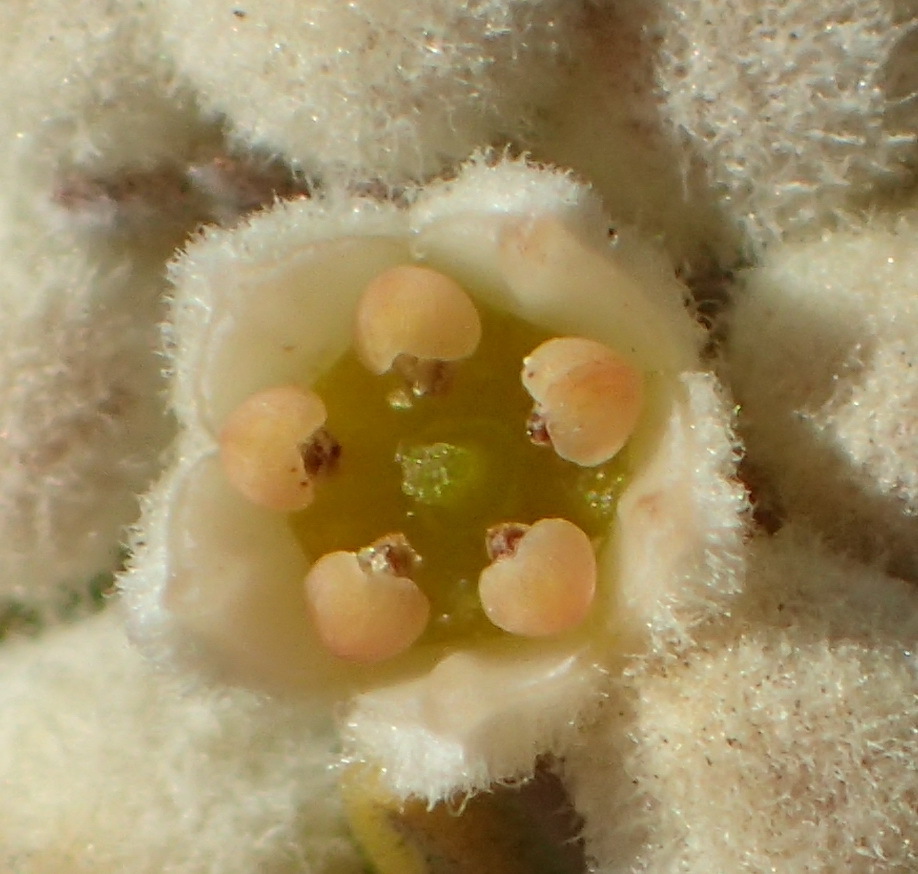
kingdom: Plantae
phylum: Tracheophyta
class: Magnoliopsida
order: Rosales
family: Rhamnaceae
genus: Phylica
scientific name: Phylica rigidifolia
